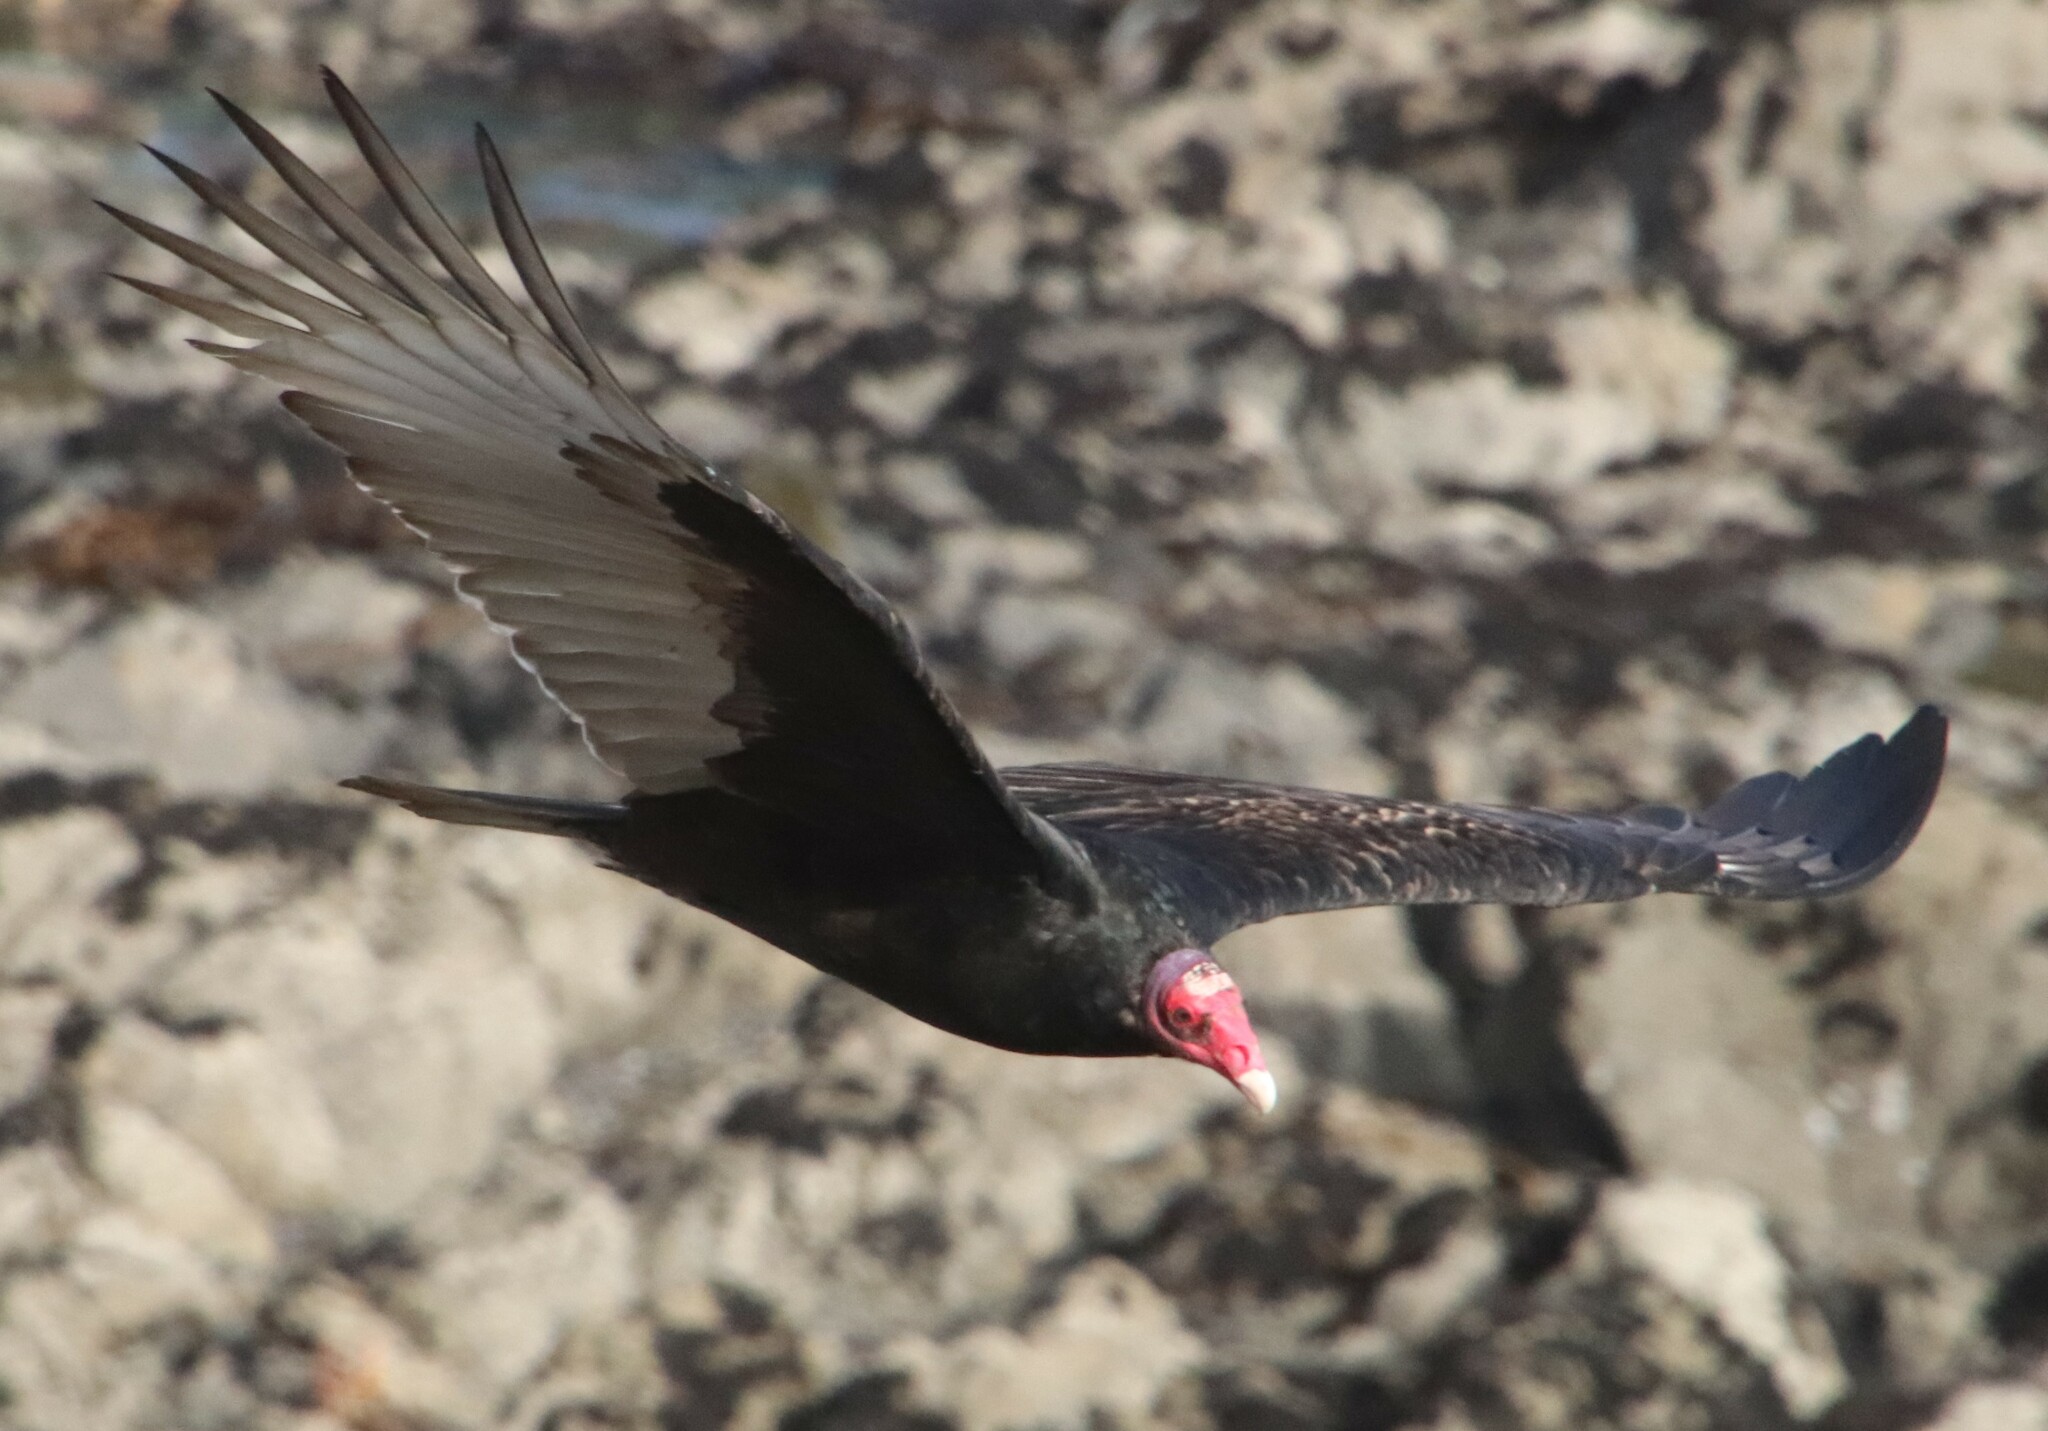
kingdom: Animalia
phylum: Chordata
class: Aves
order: Accipitriformes
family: Cathartidae
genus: Cathartes
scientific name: Cathartes aura
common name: Turkey vulture
